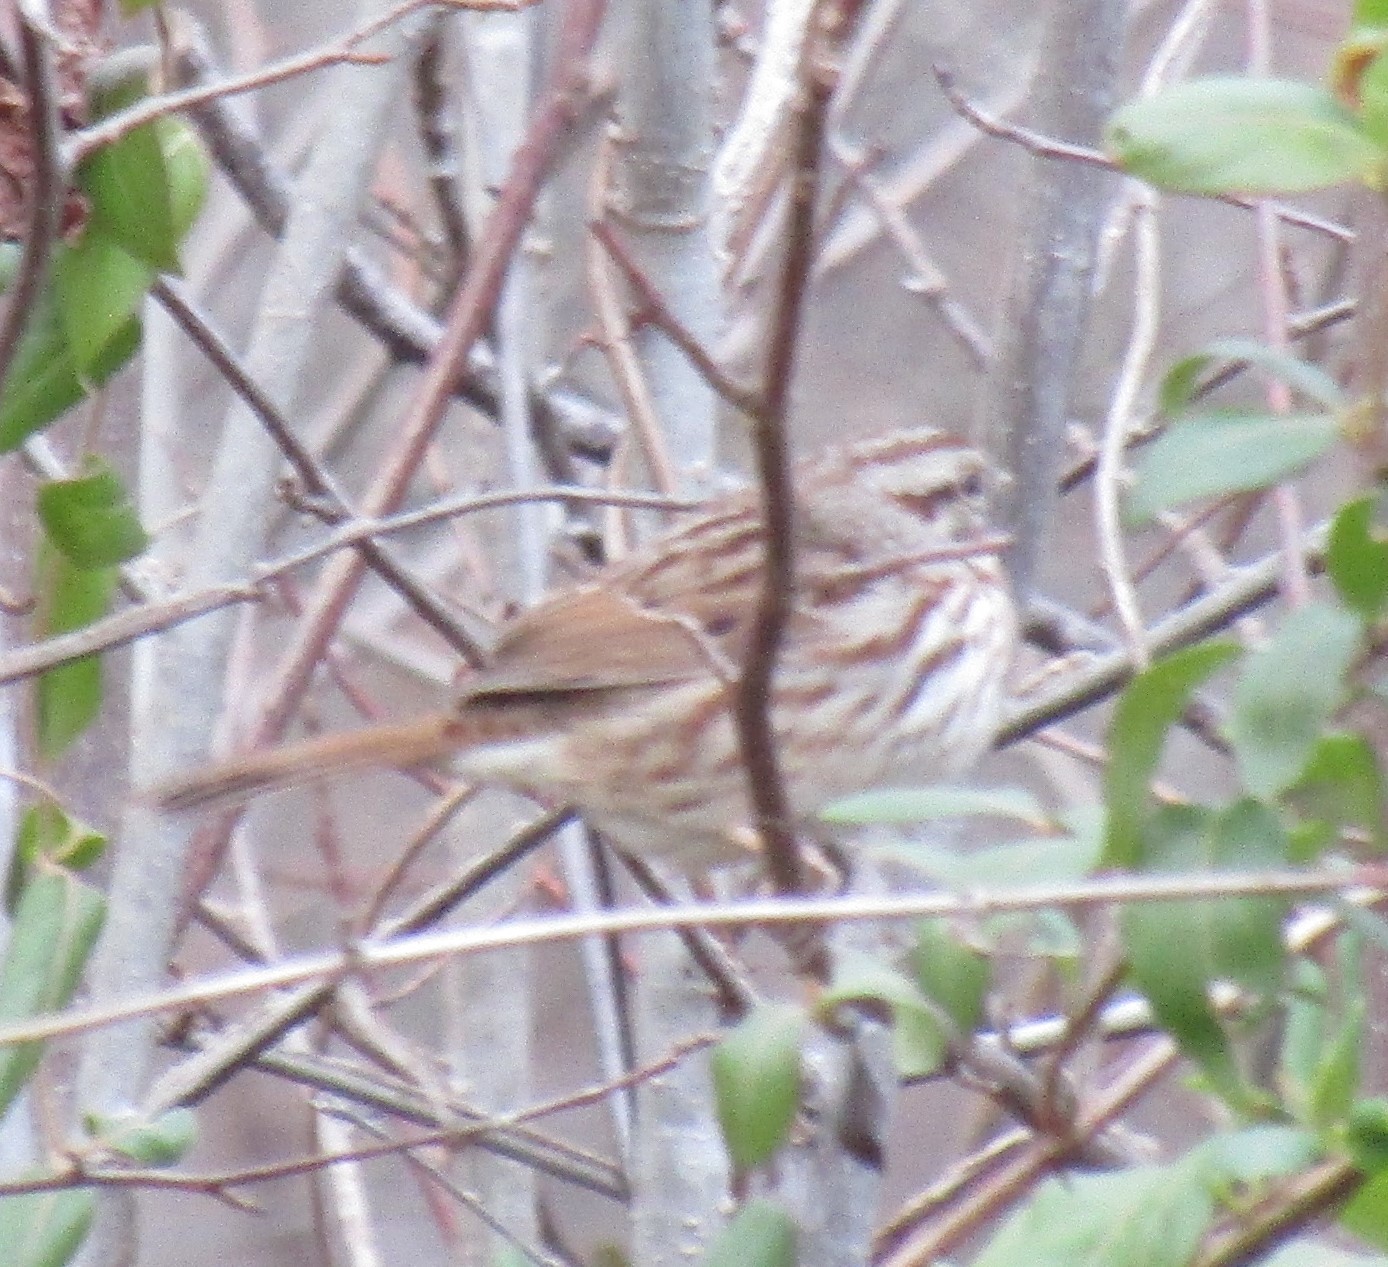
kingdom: Animalia
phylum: Chordata
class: Aves
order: Passeriformes
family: Passerellidae
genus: Melospiza
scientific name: Melospiza melodia
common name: Song sparrow
